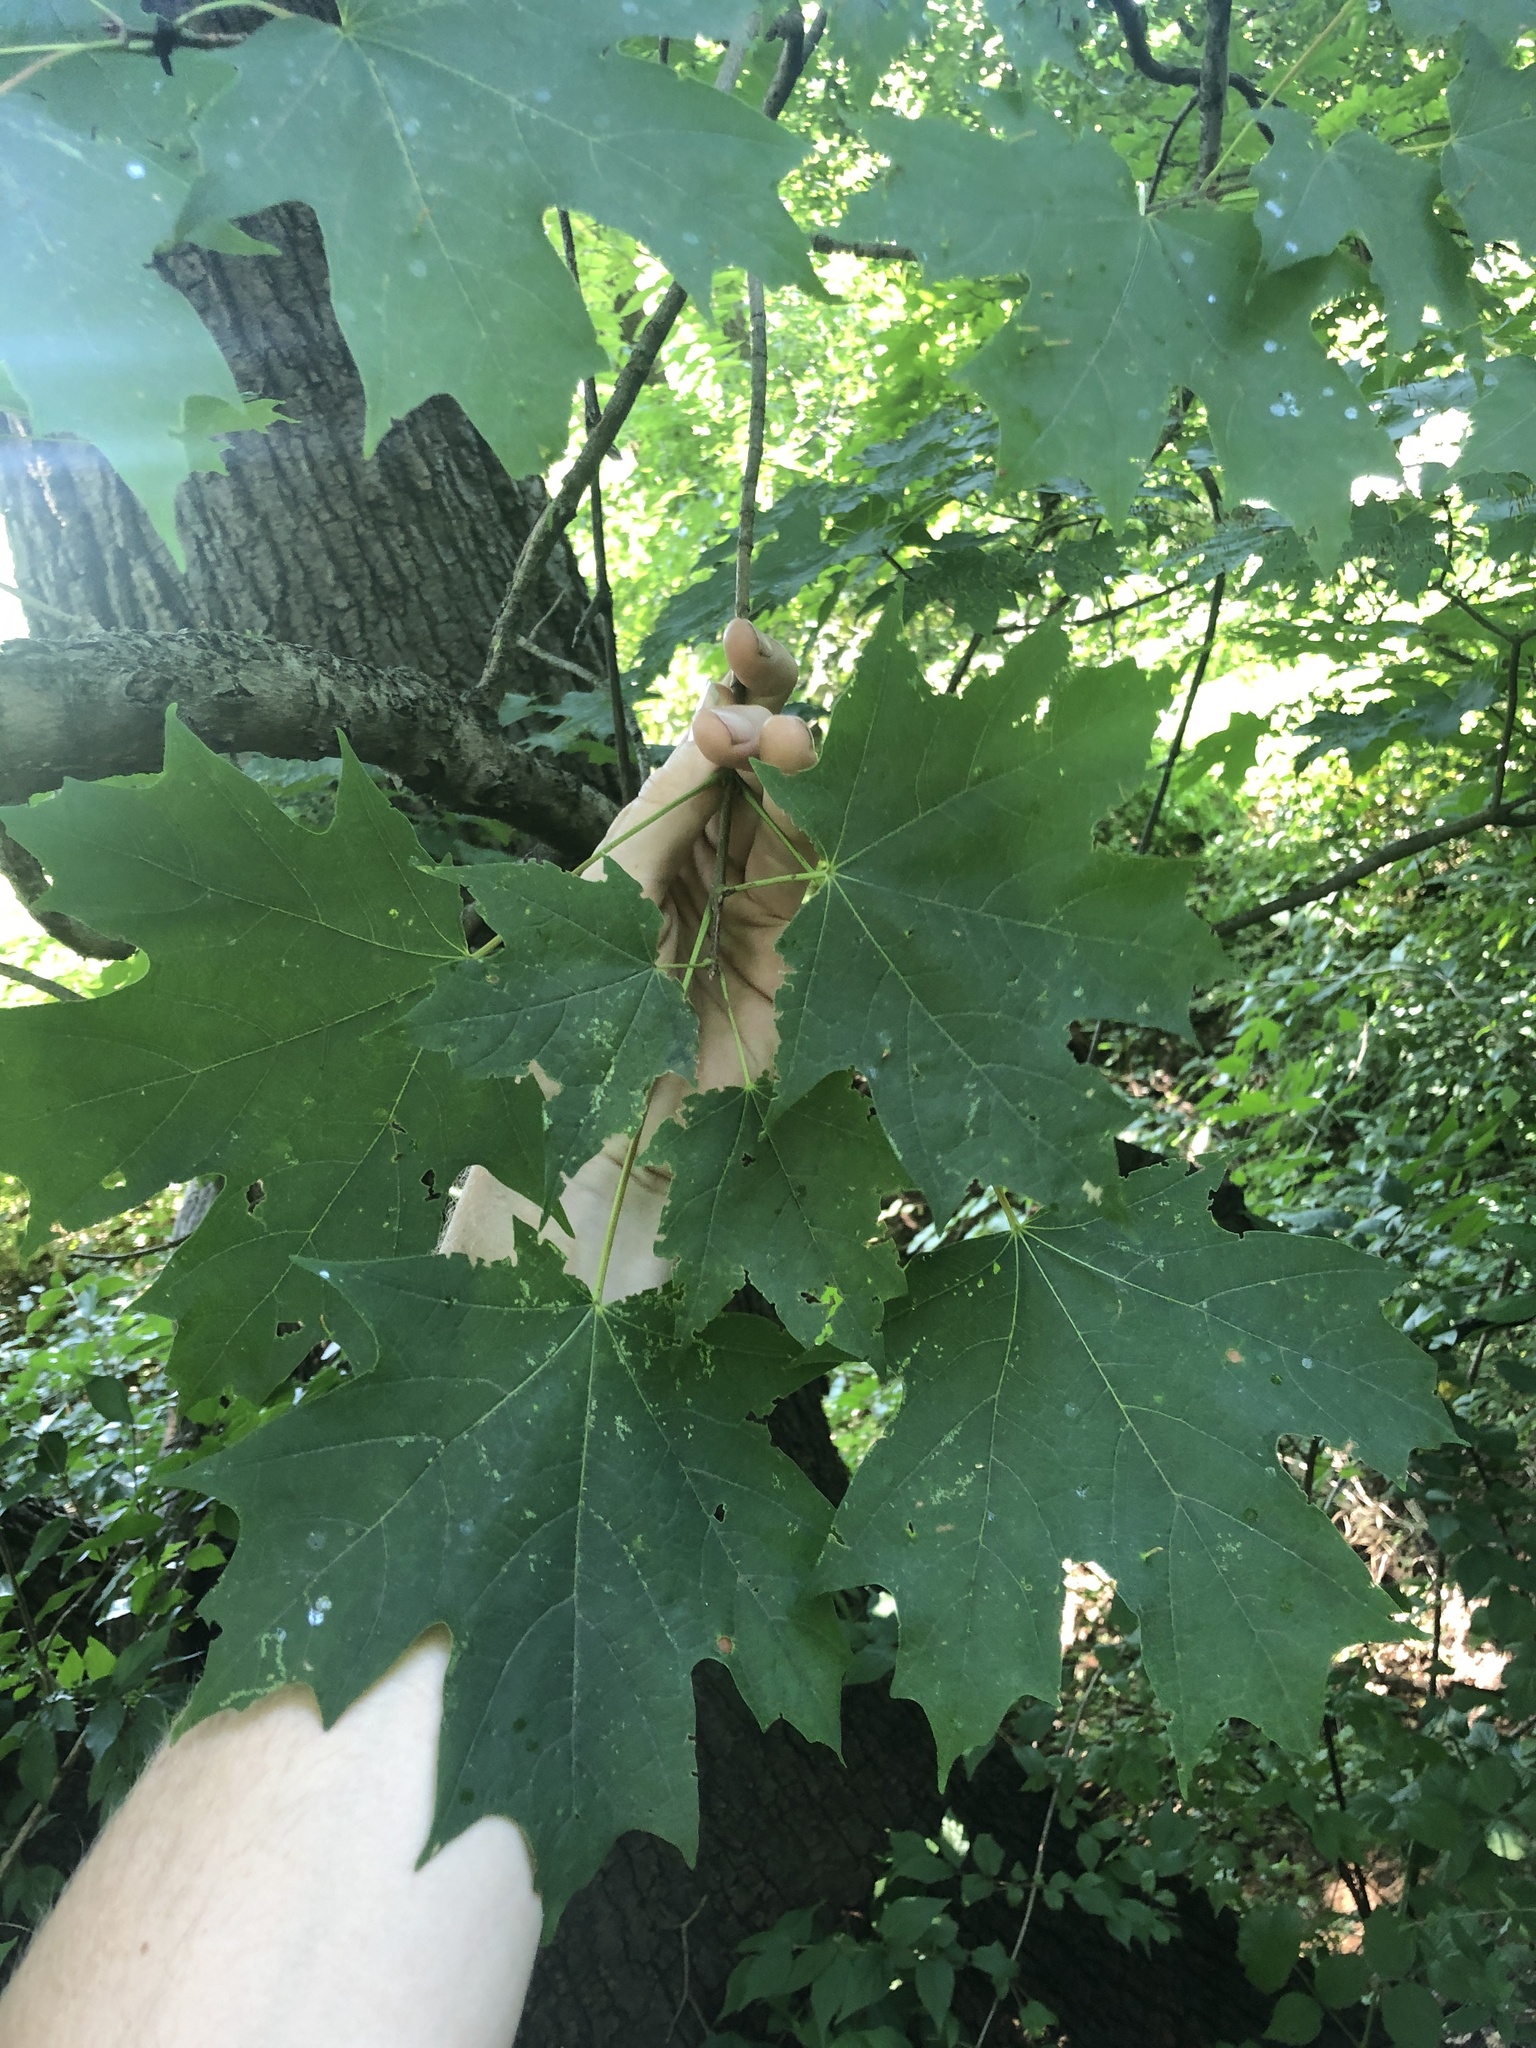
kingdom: Plantae
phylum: Tracheophyta
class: Magnoliopsida
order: Sapindales
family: Sapindaceae
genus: Acer
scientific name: Acer saccharum
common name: Sugar maple
